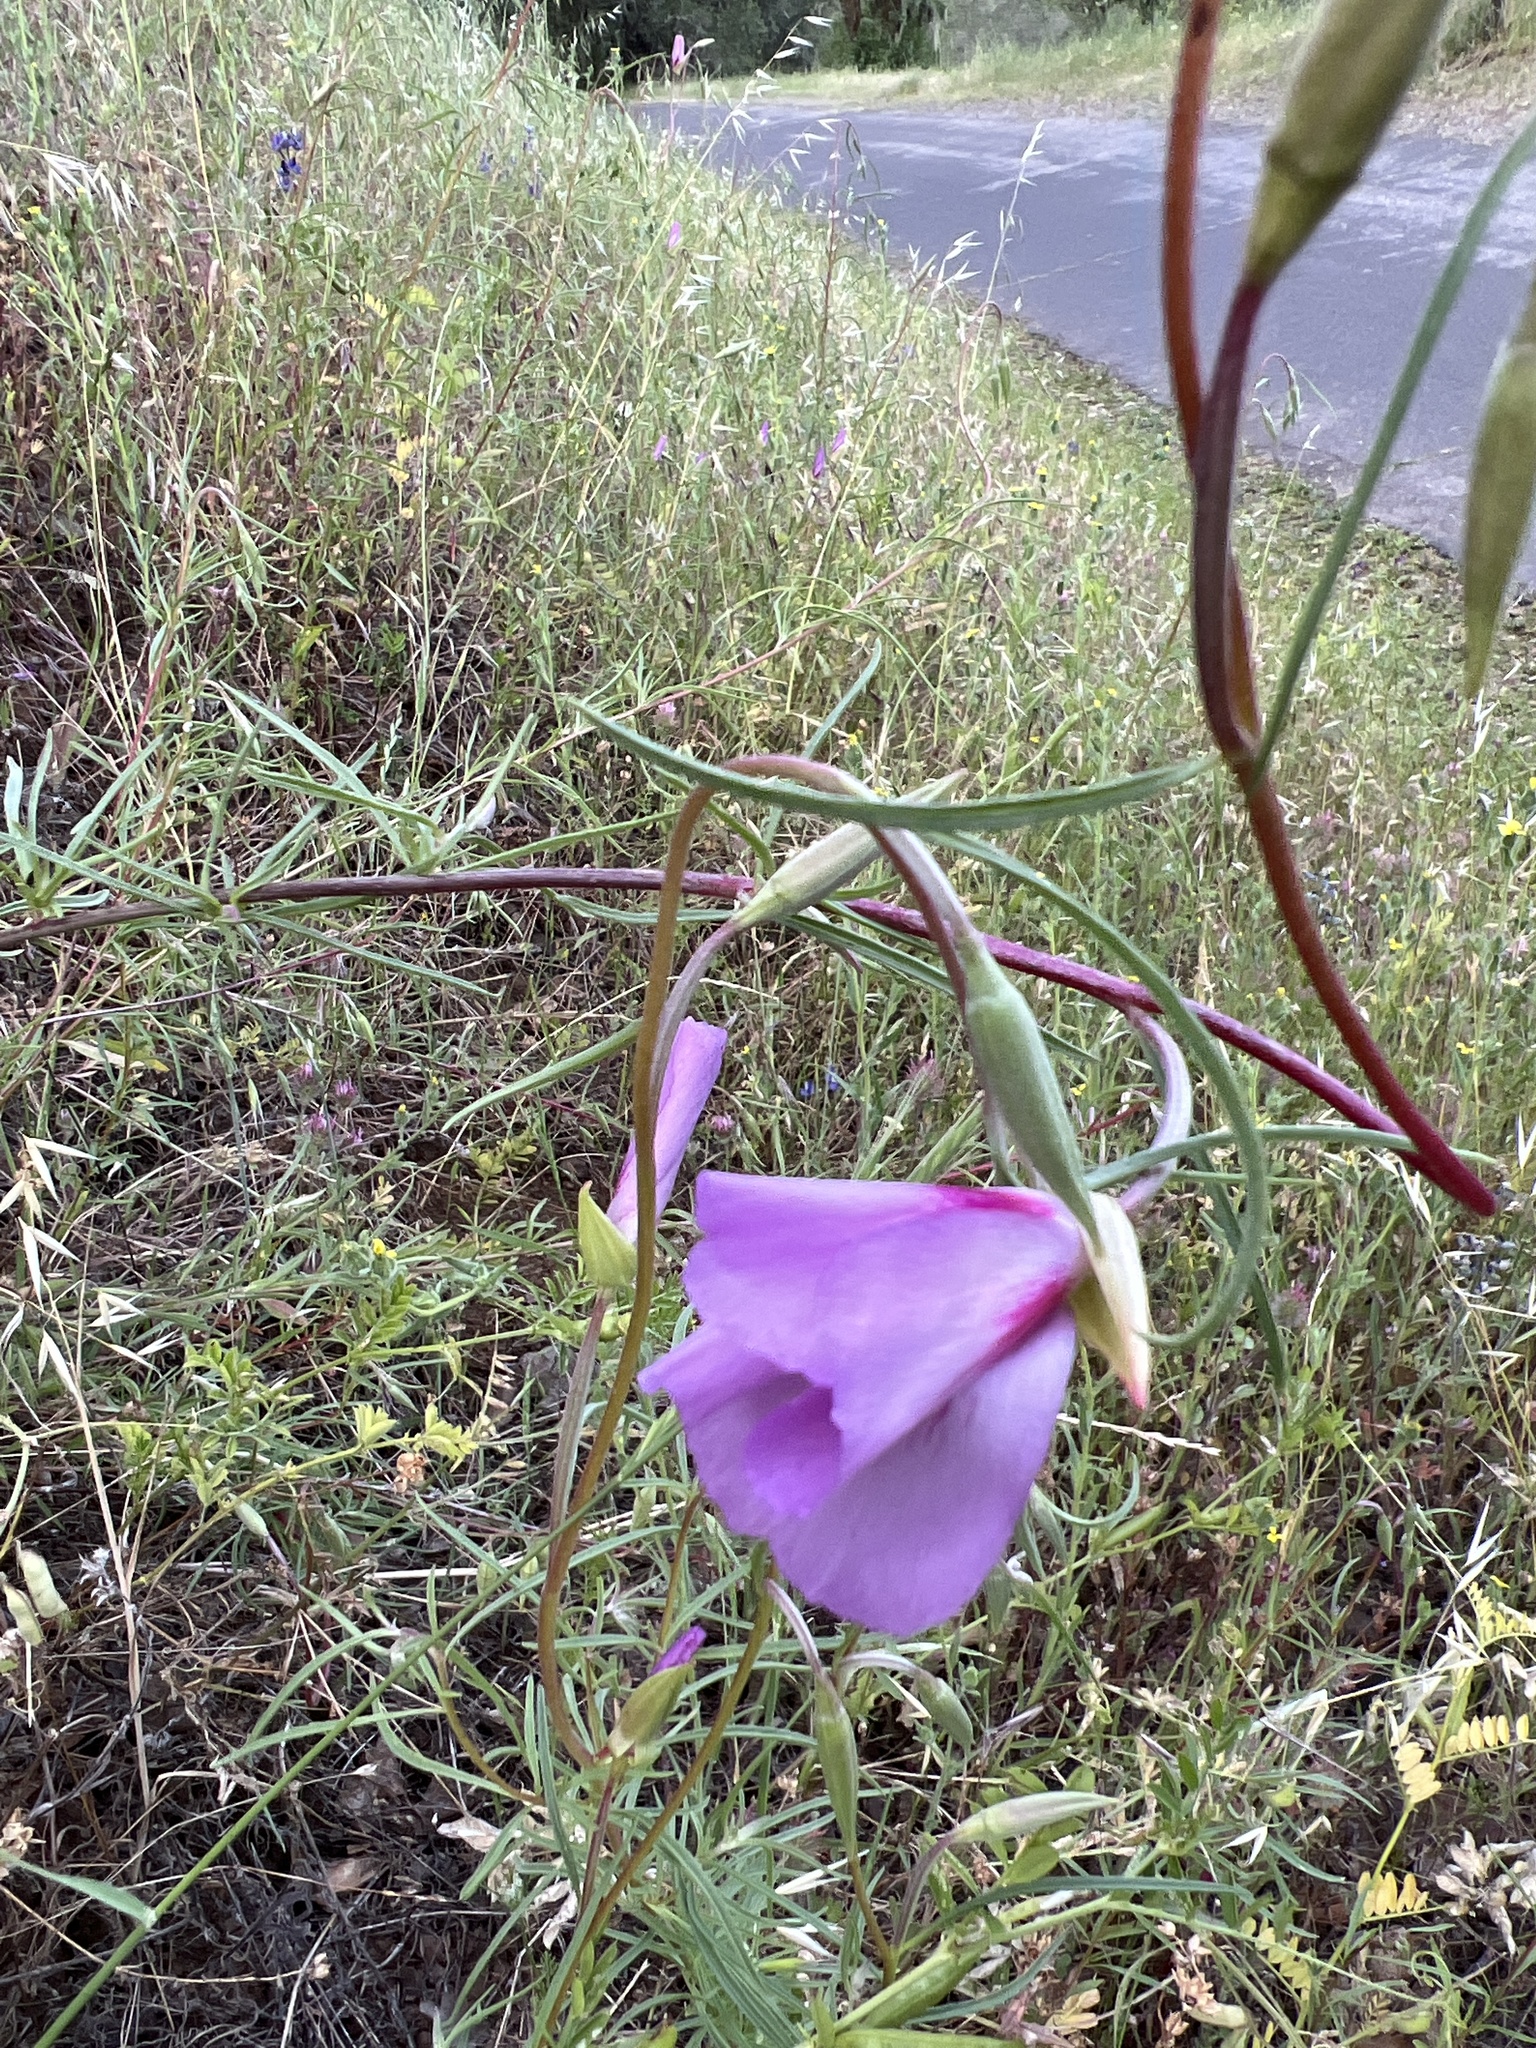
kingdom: Plantae
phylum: Tracheophyta
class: Magnoliopsida
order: Myrtales
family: Onagraceae
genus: Clarkia
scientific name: Clarkia amoena
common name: Godetia
